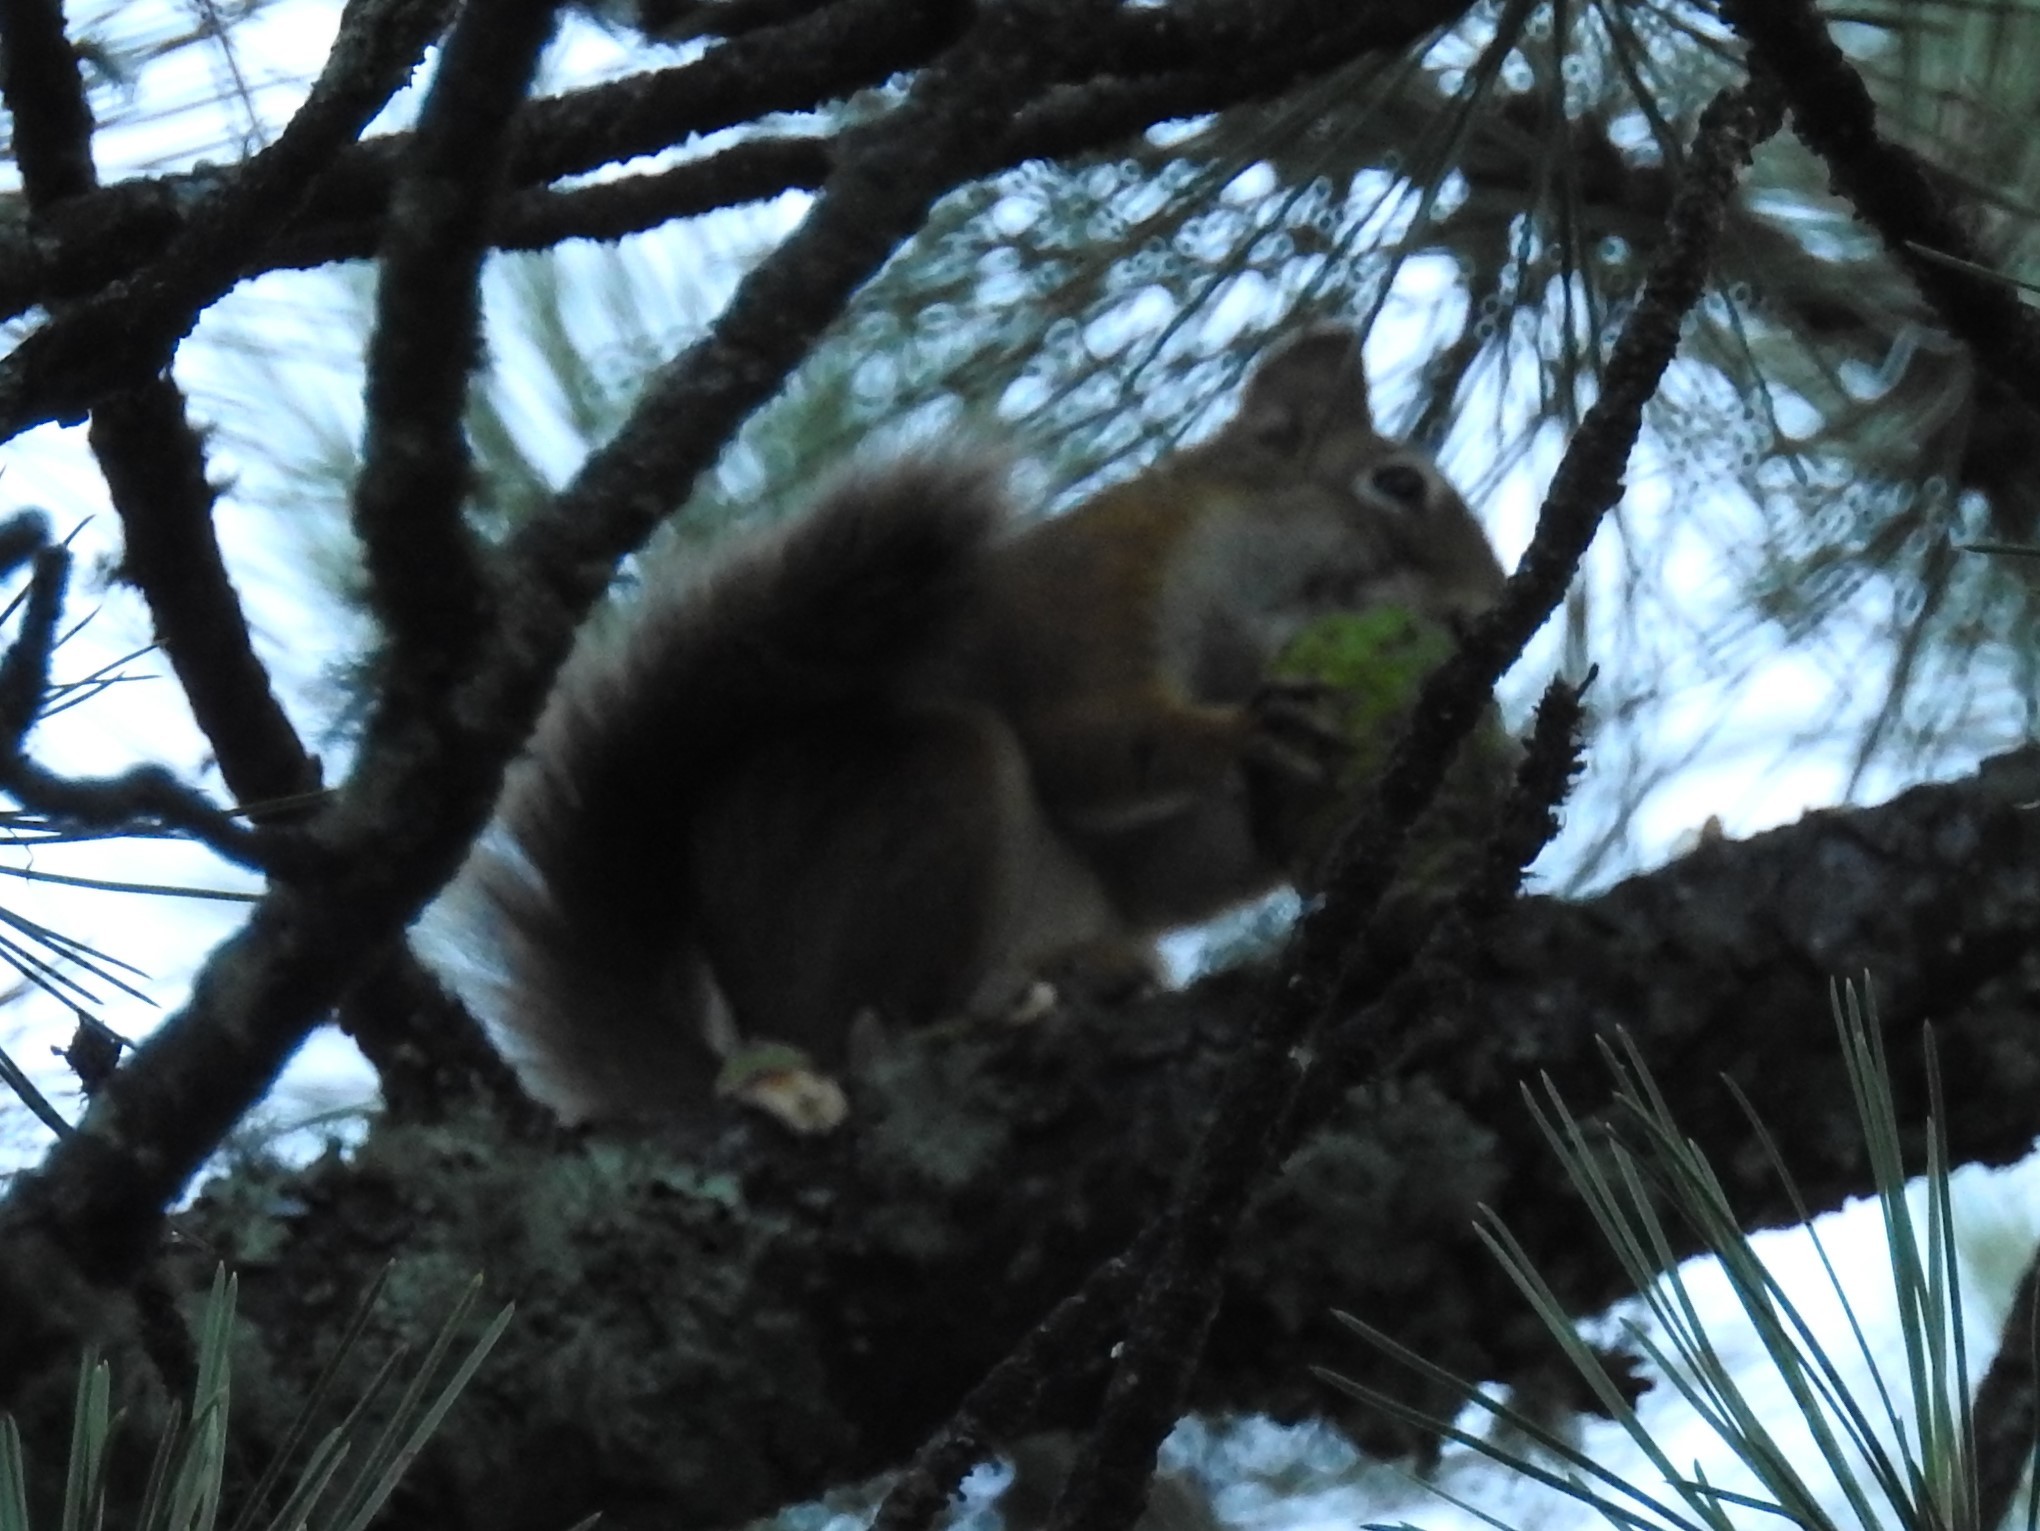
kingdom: Animalia
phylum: Chordata
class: Mammalia
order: Rodentia
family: Sciuridae
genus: Tamiasciurus
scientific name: Tamiasciurus hudsonicus
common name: Red squirrel
